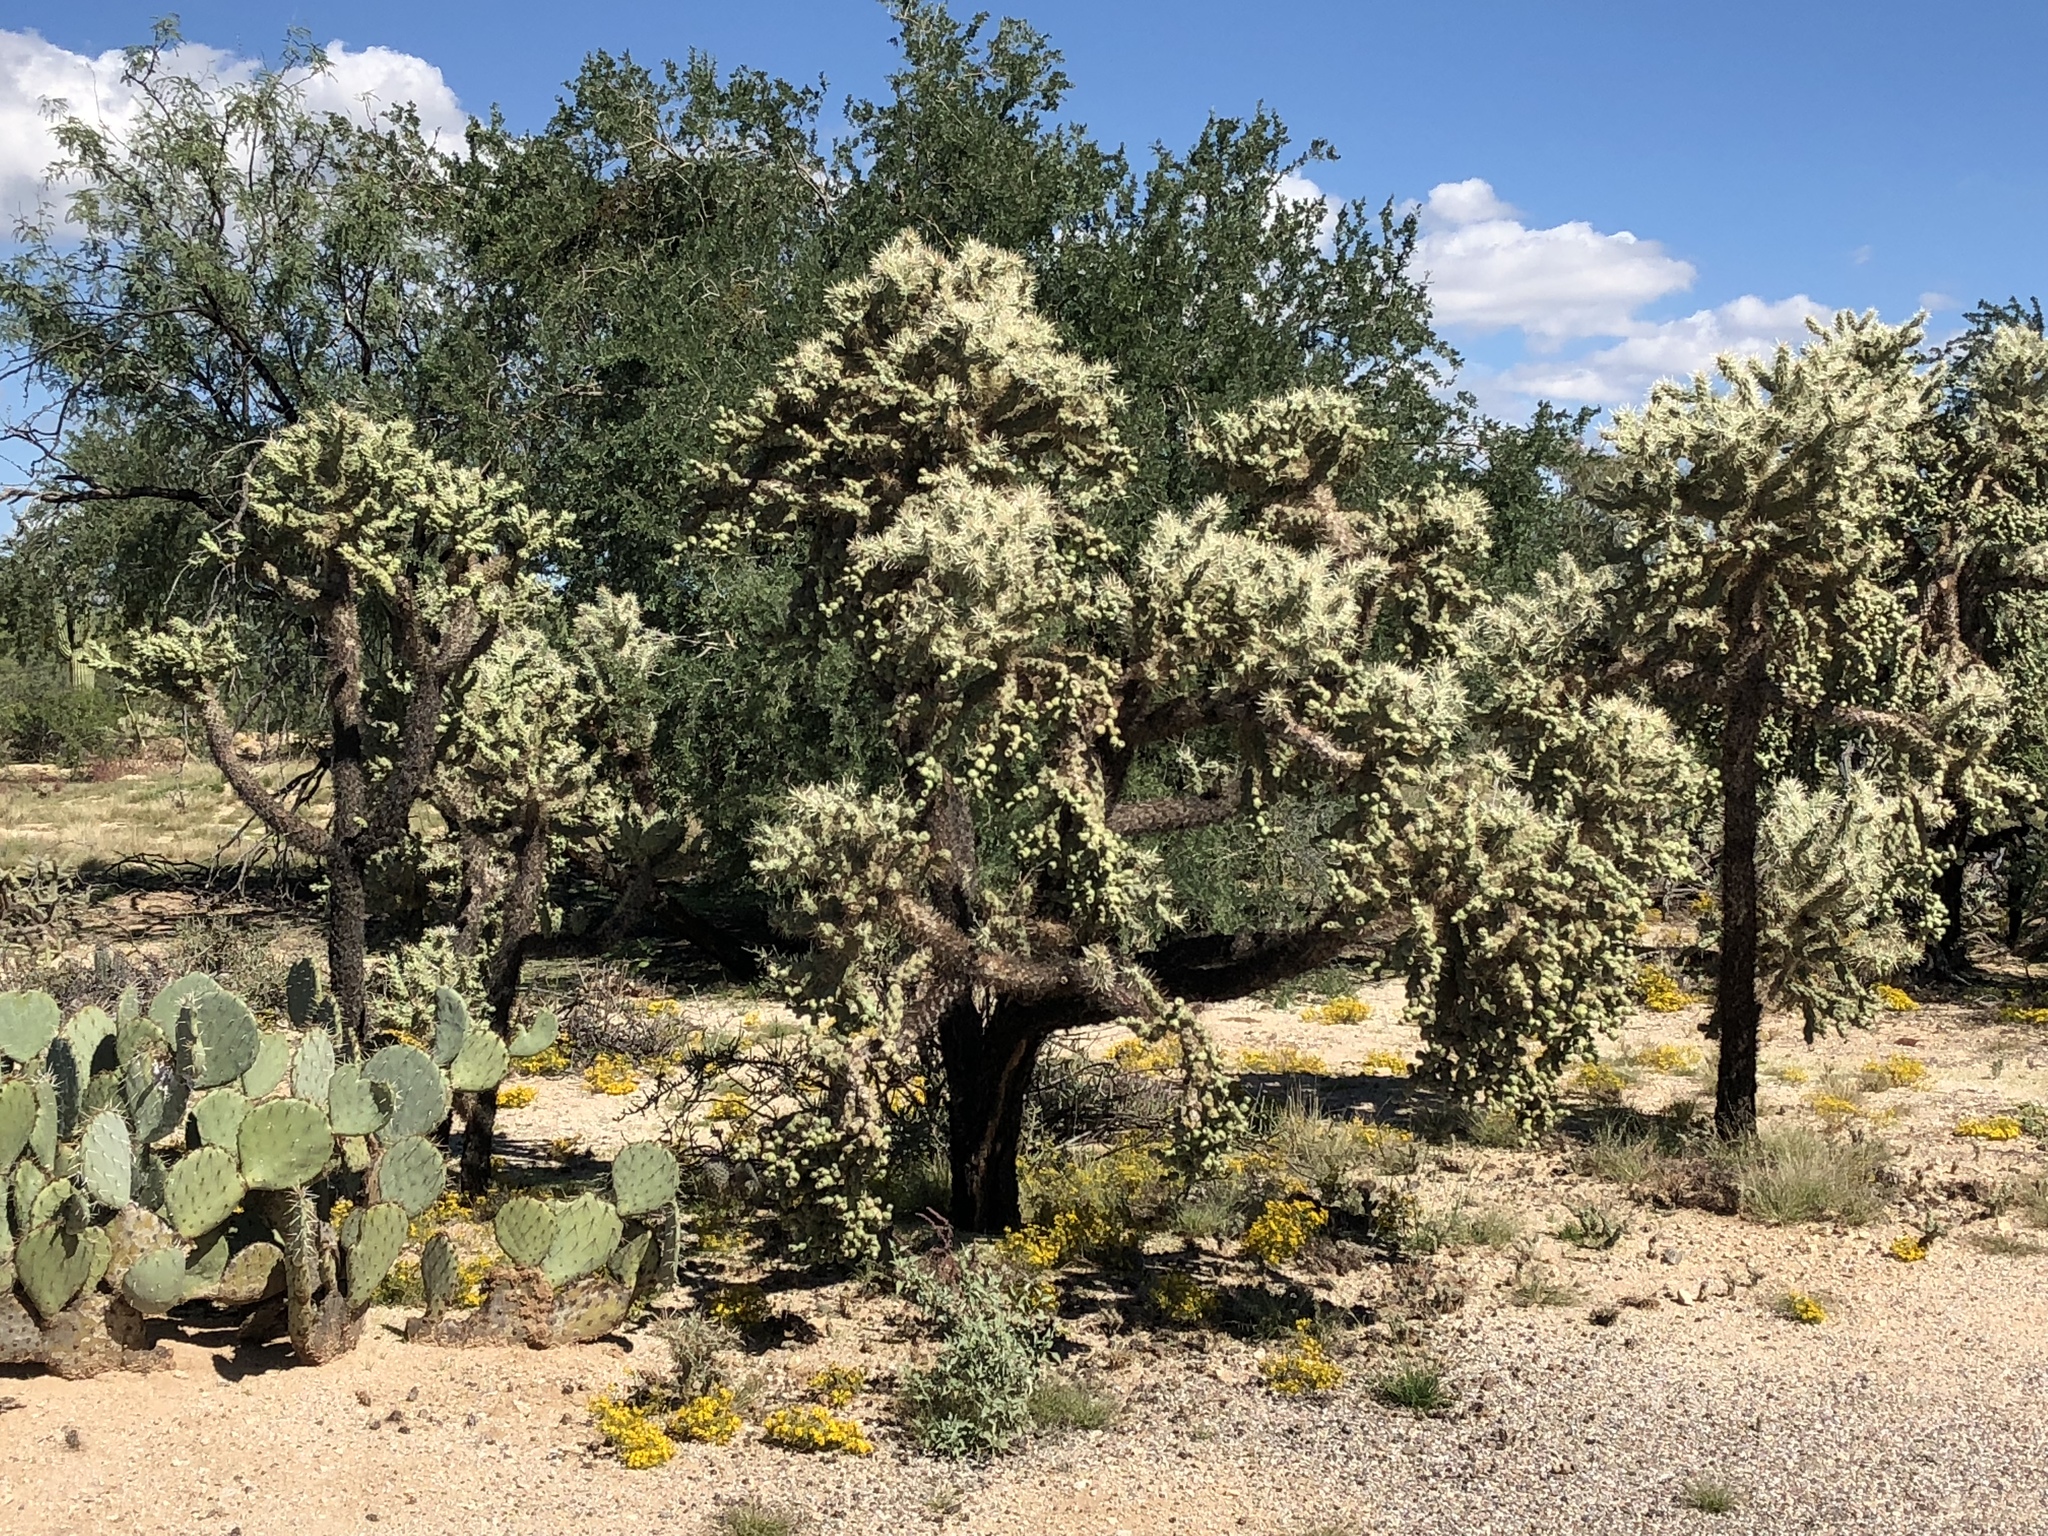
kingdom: Plantae
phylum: Tracheophyta
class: Magnoliopsida
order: Caryophyllales
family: Cactaceae
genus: Cylindropuntia
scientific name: Cylindropuntia fulgida
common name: Jumping cholla
